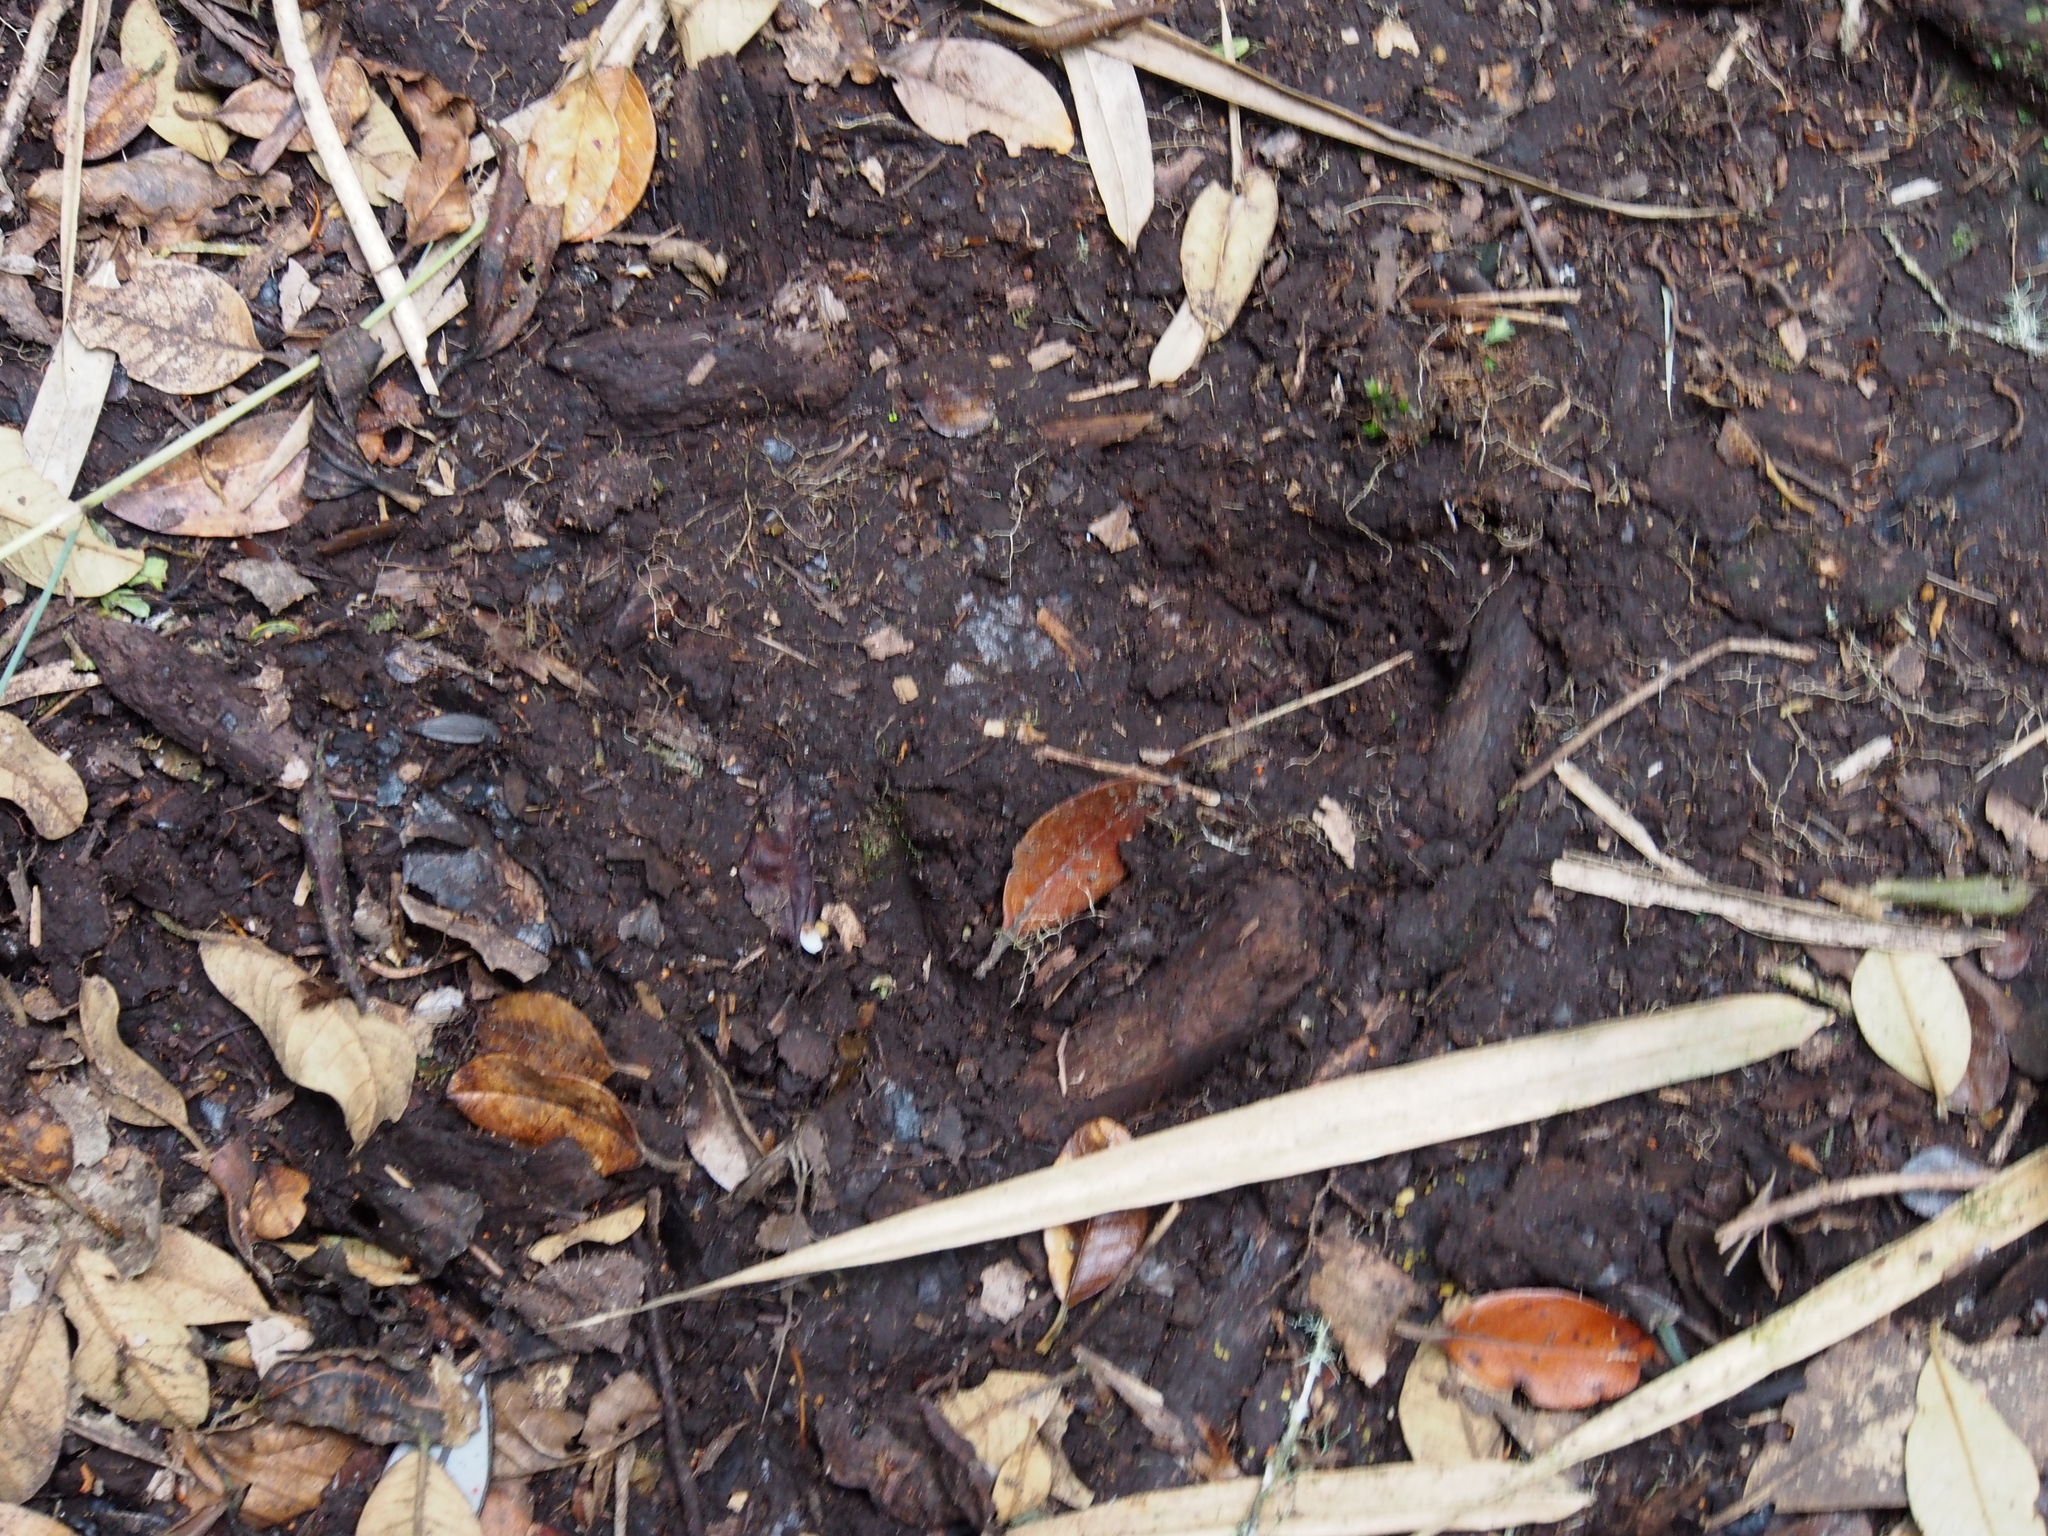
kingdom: Animalia
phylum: Chordata
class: Mammalia
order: Perissodactyla
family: Tapiridae
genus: Tapirella
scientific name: Tapirella bairdii
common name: Baird's tapir
